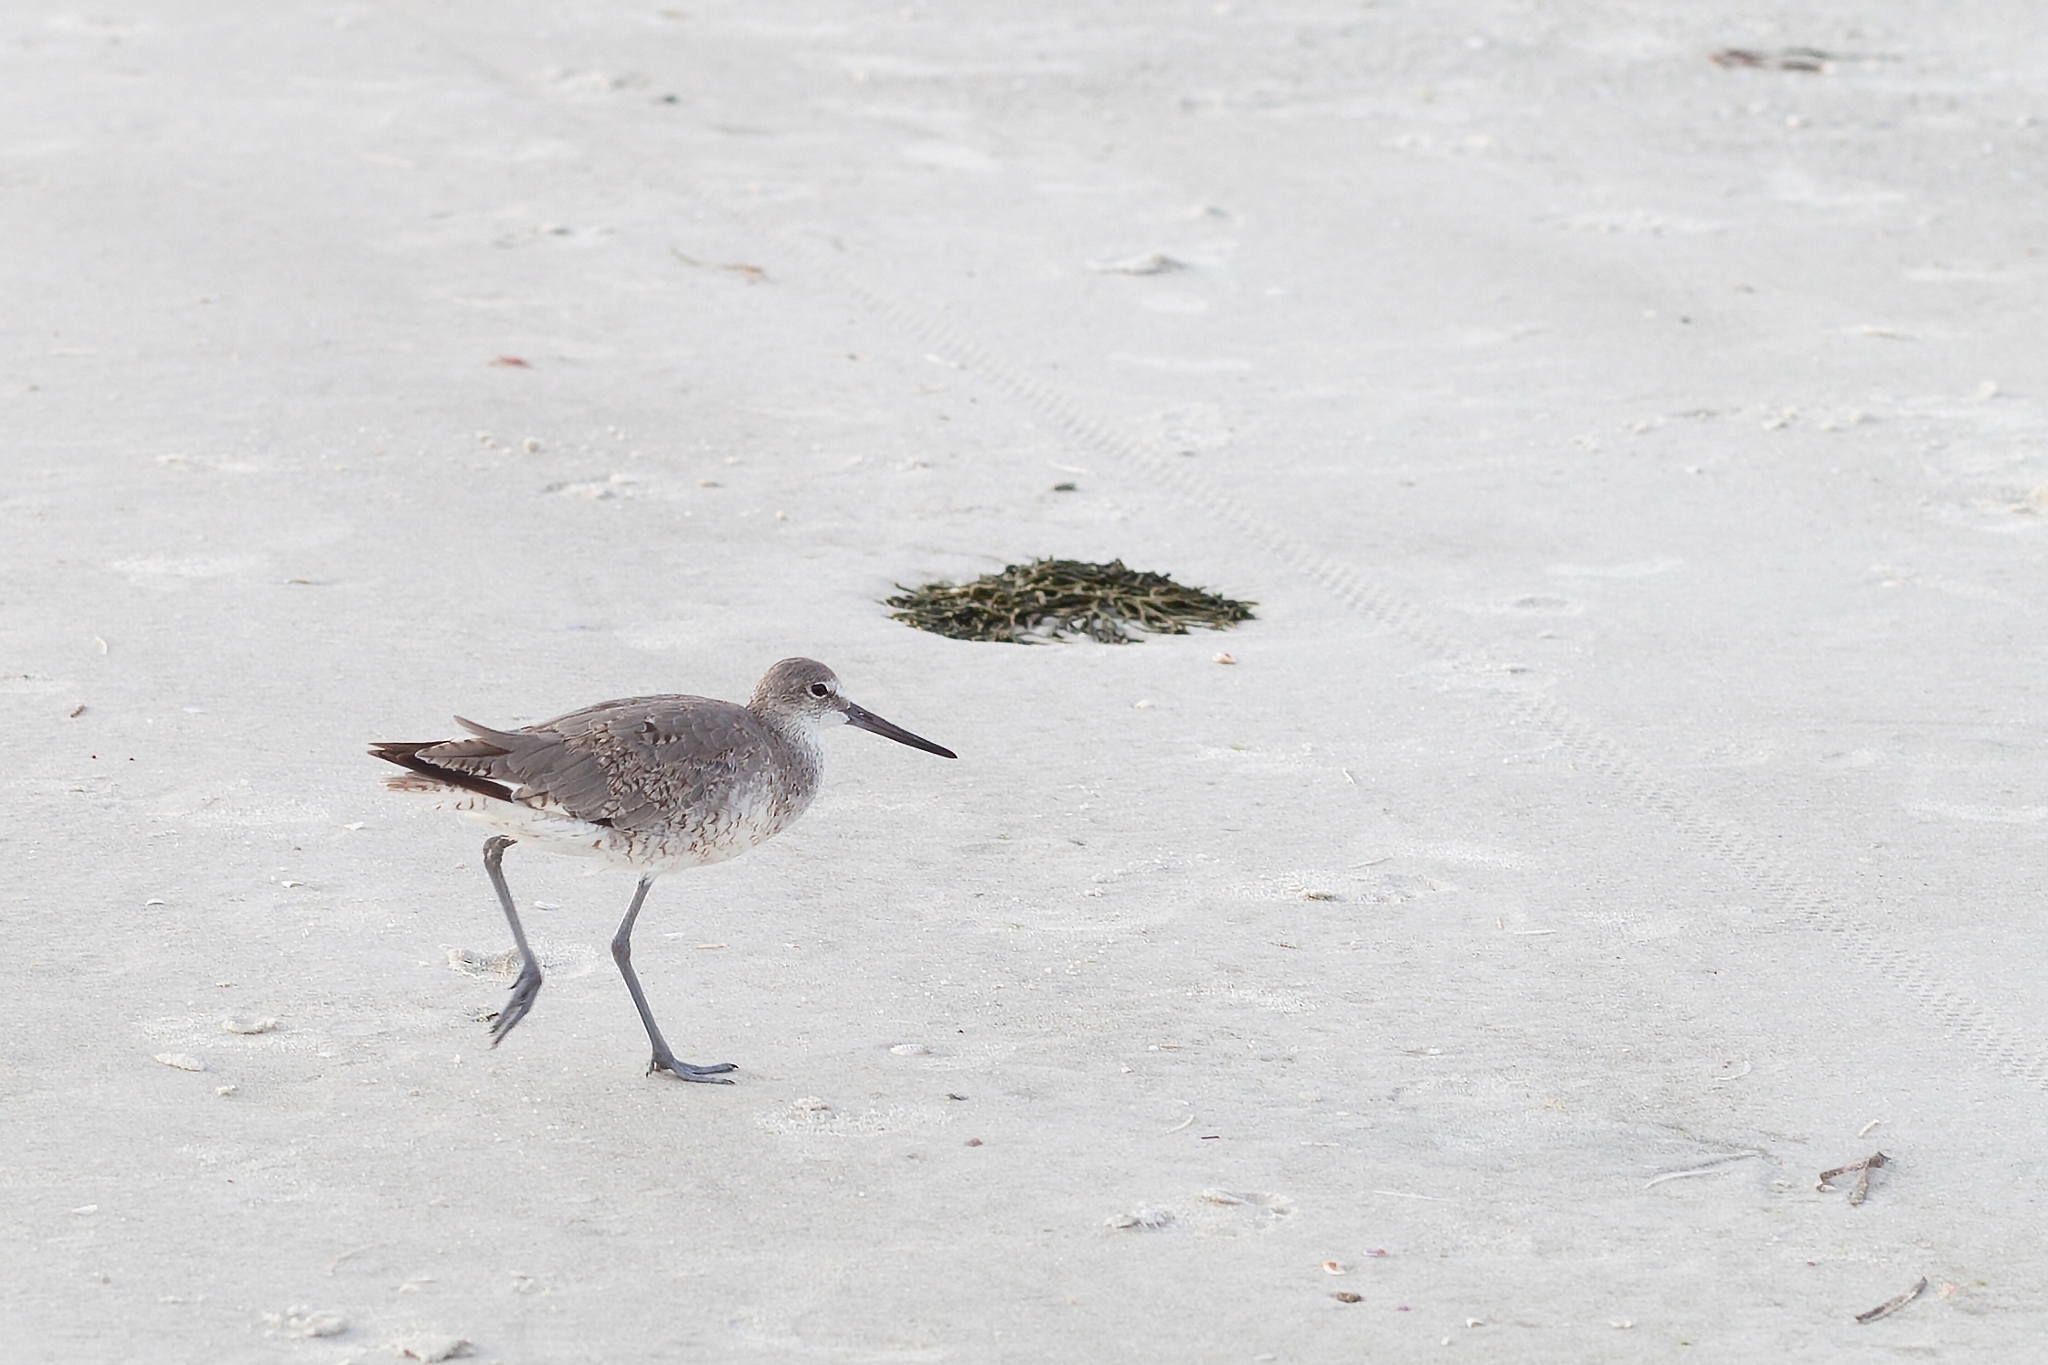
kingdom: Animalia
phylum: Chordata
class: Aves
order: Charadriiformes
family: Scolopacidae
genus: Tringa
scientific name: Tringa semipalmata
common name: Willet
